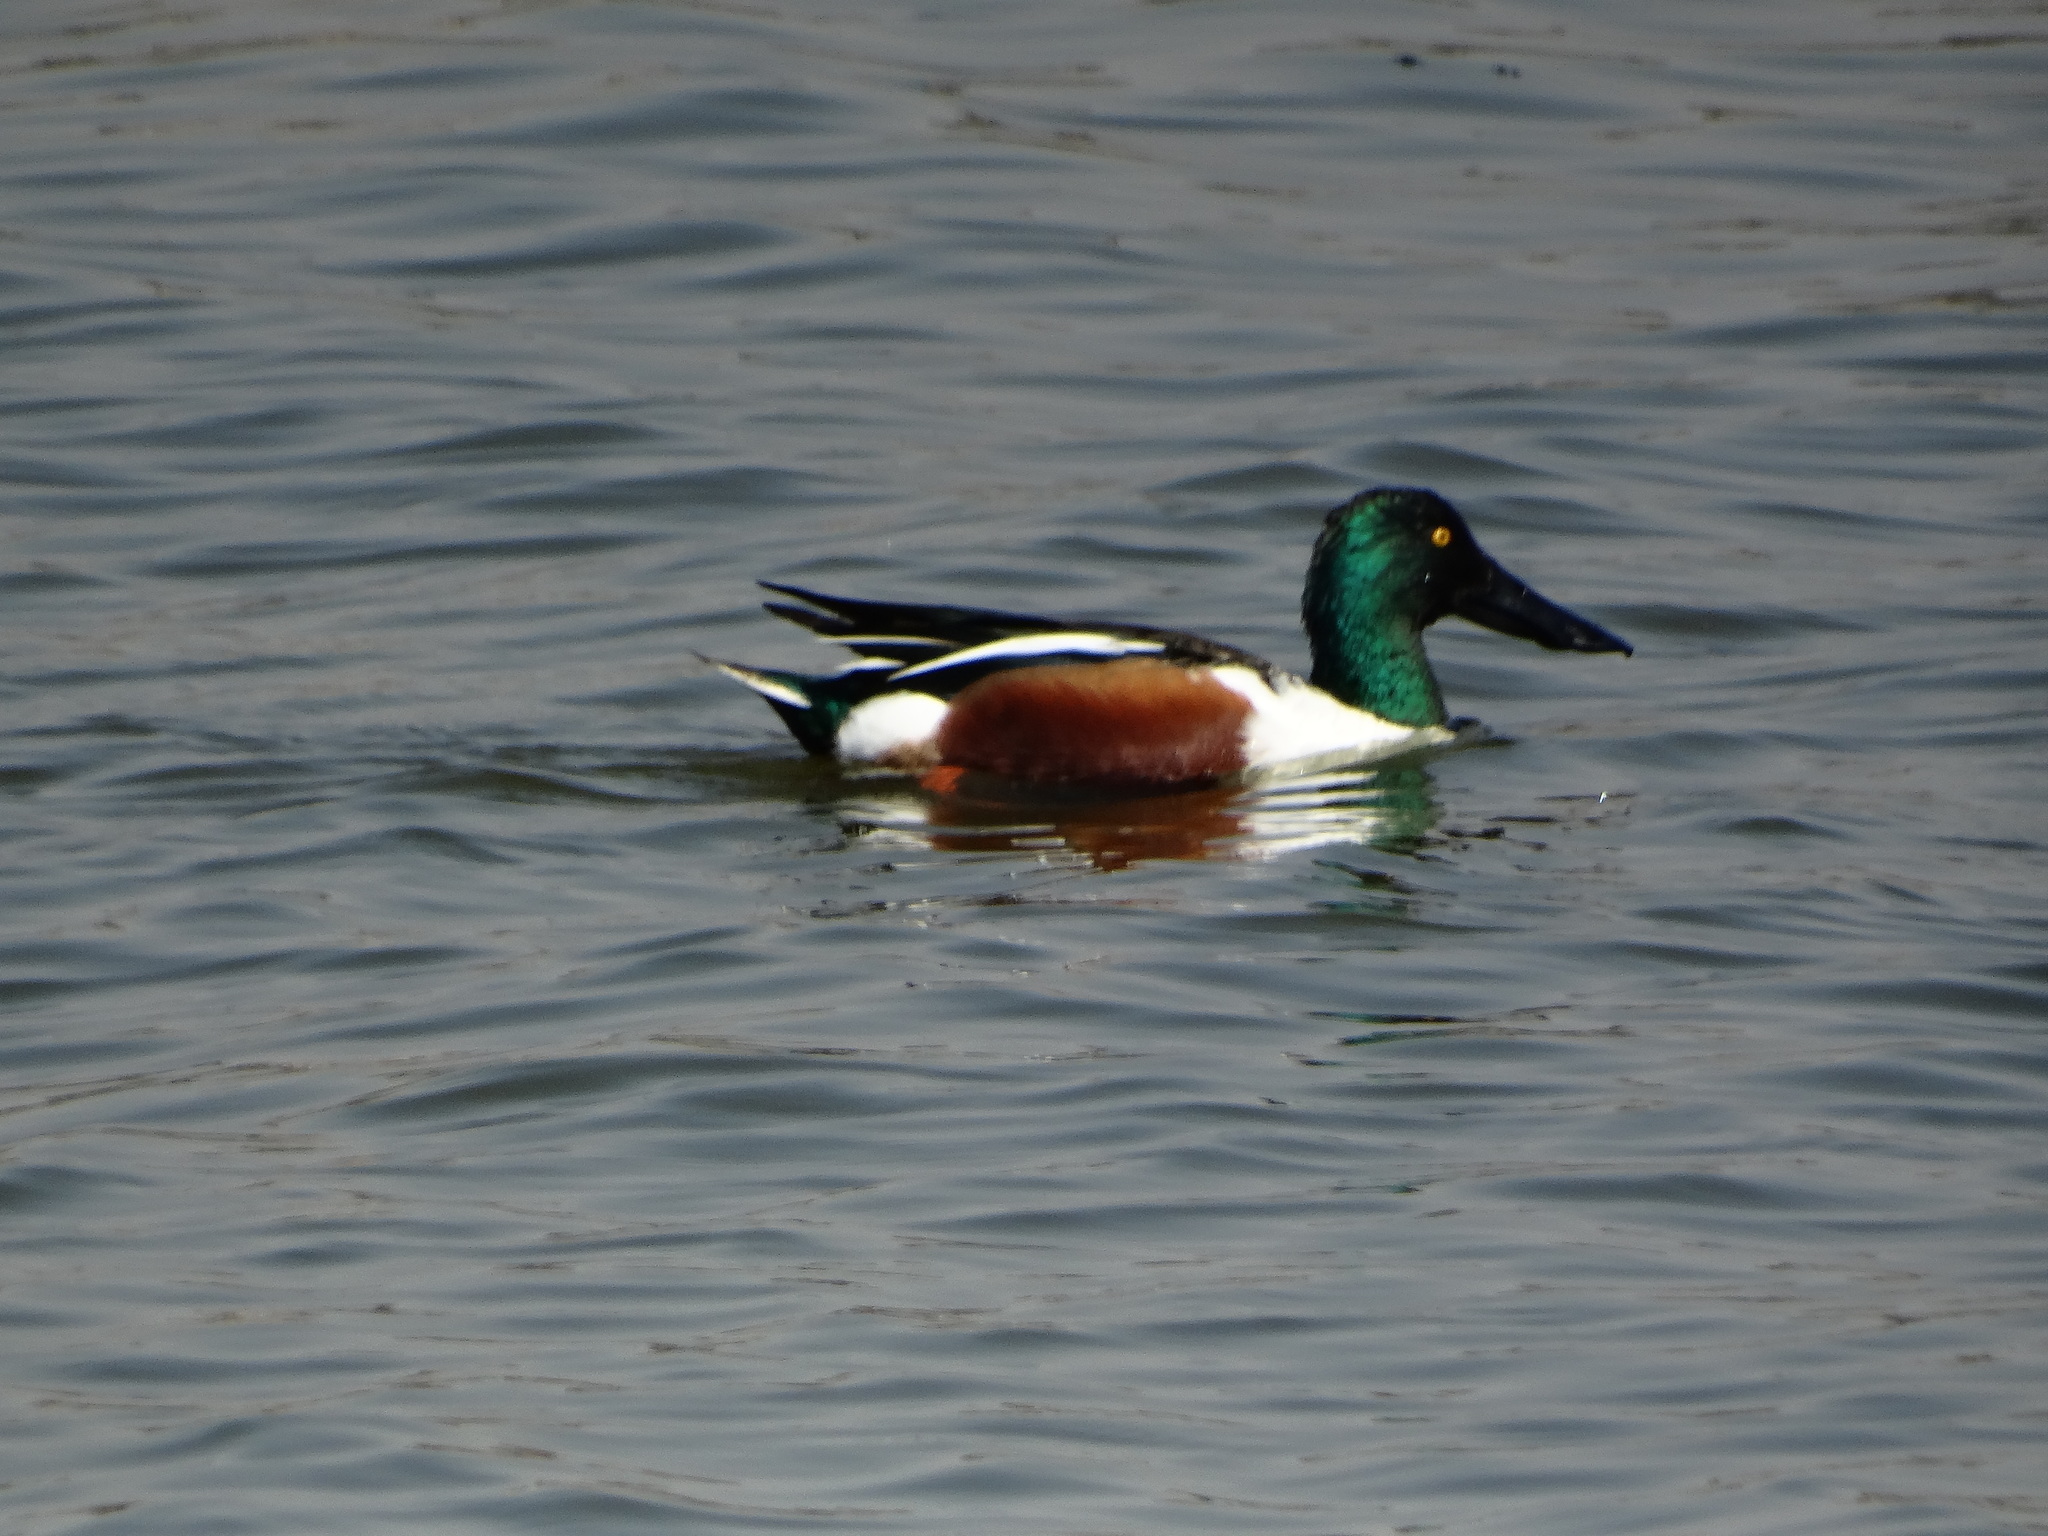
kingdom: Animalia
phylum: Chordata
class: Aves
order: Anseriformes
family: Anatidae
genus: Spatula
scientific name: Spatula clypeata
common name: Northern shoveler
